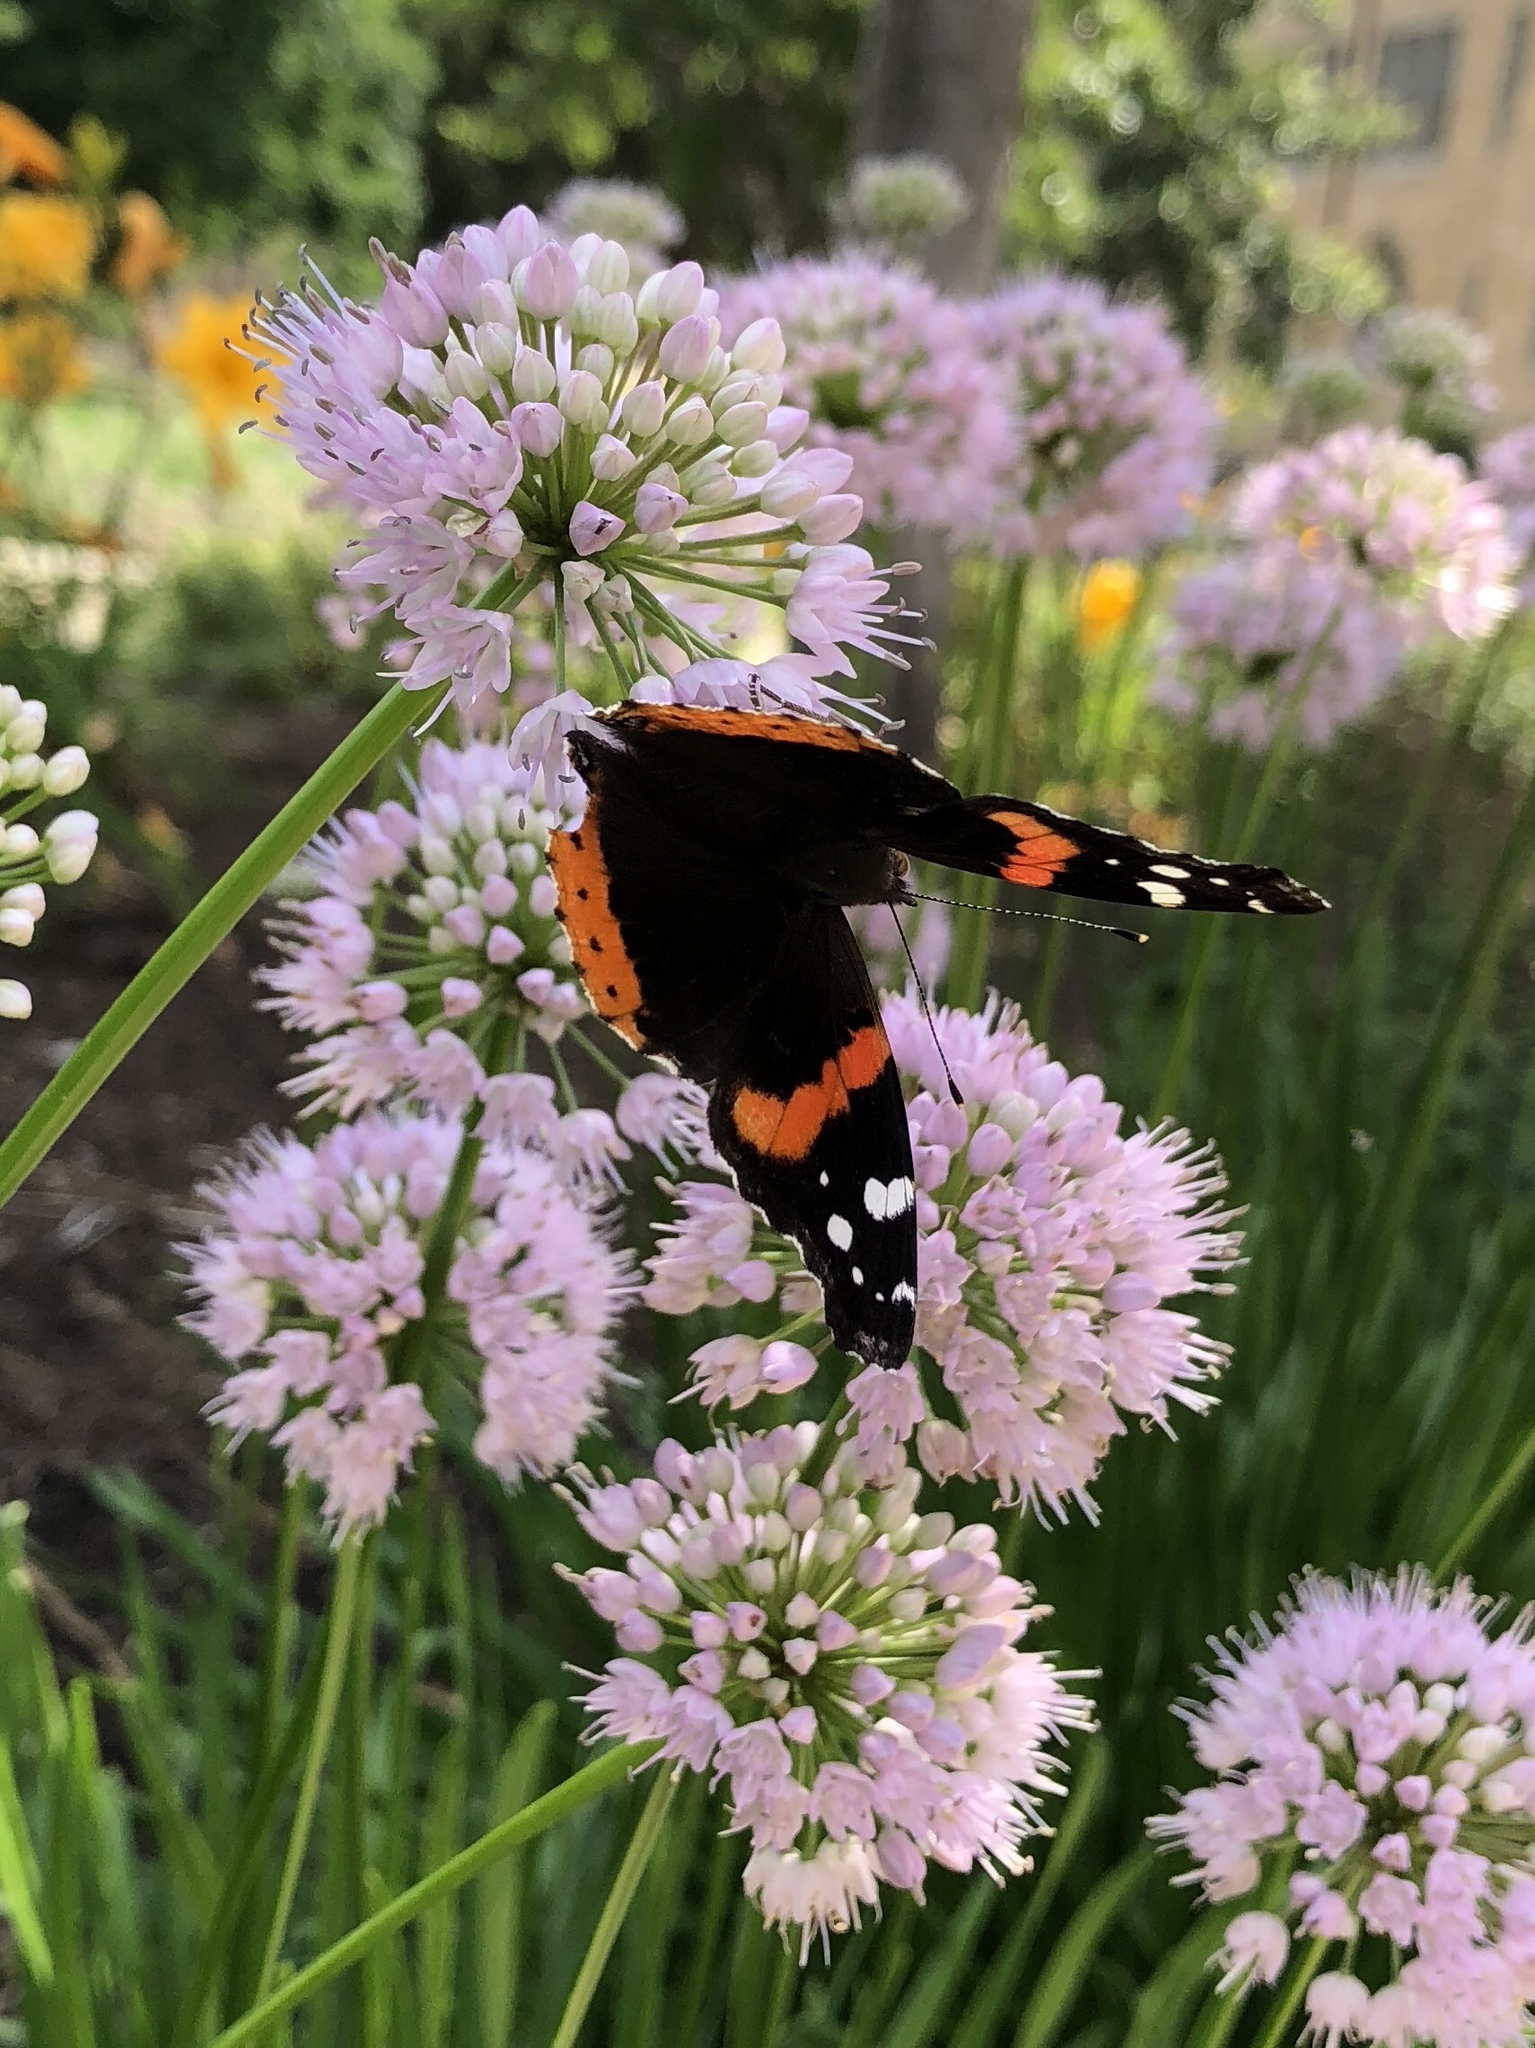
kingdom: Animalia
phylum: Arthropoda
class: Insecta
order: Lepidoptera
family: Nymphalidae
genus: Vanessa
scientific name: Vanessa atalanta
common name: Red admiral
